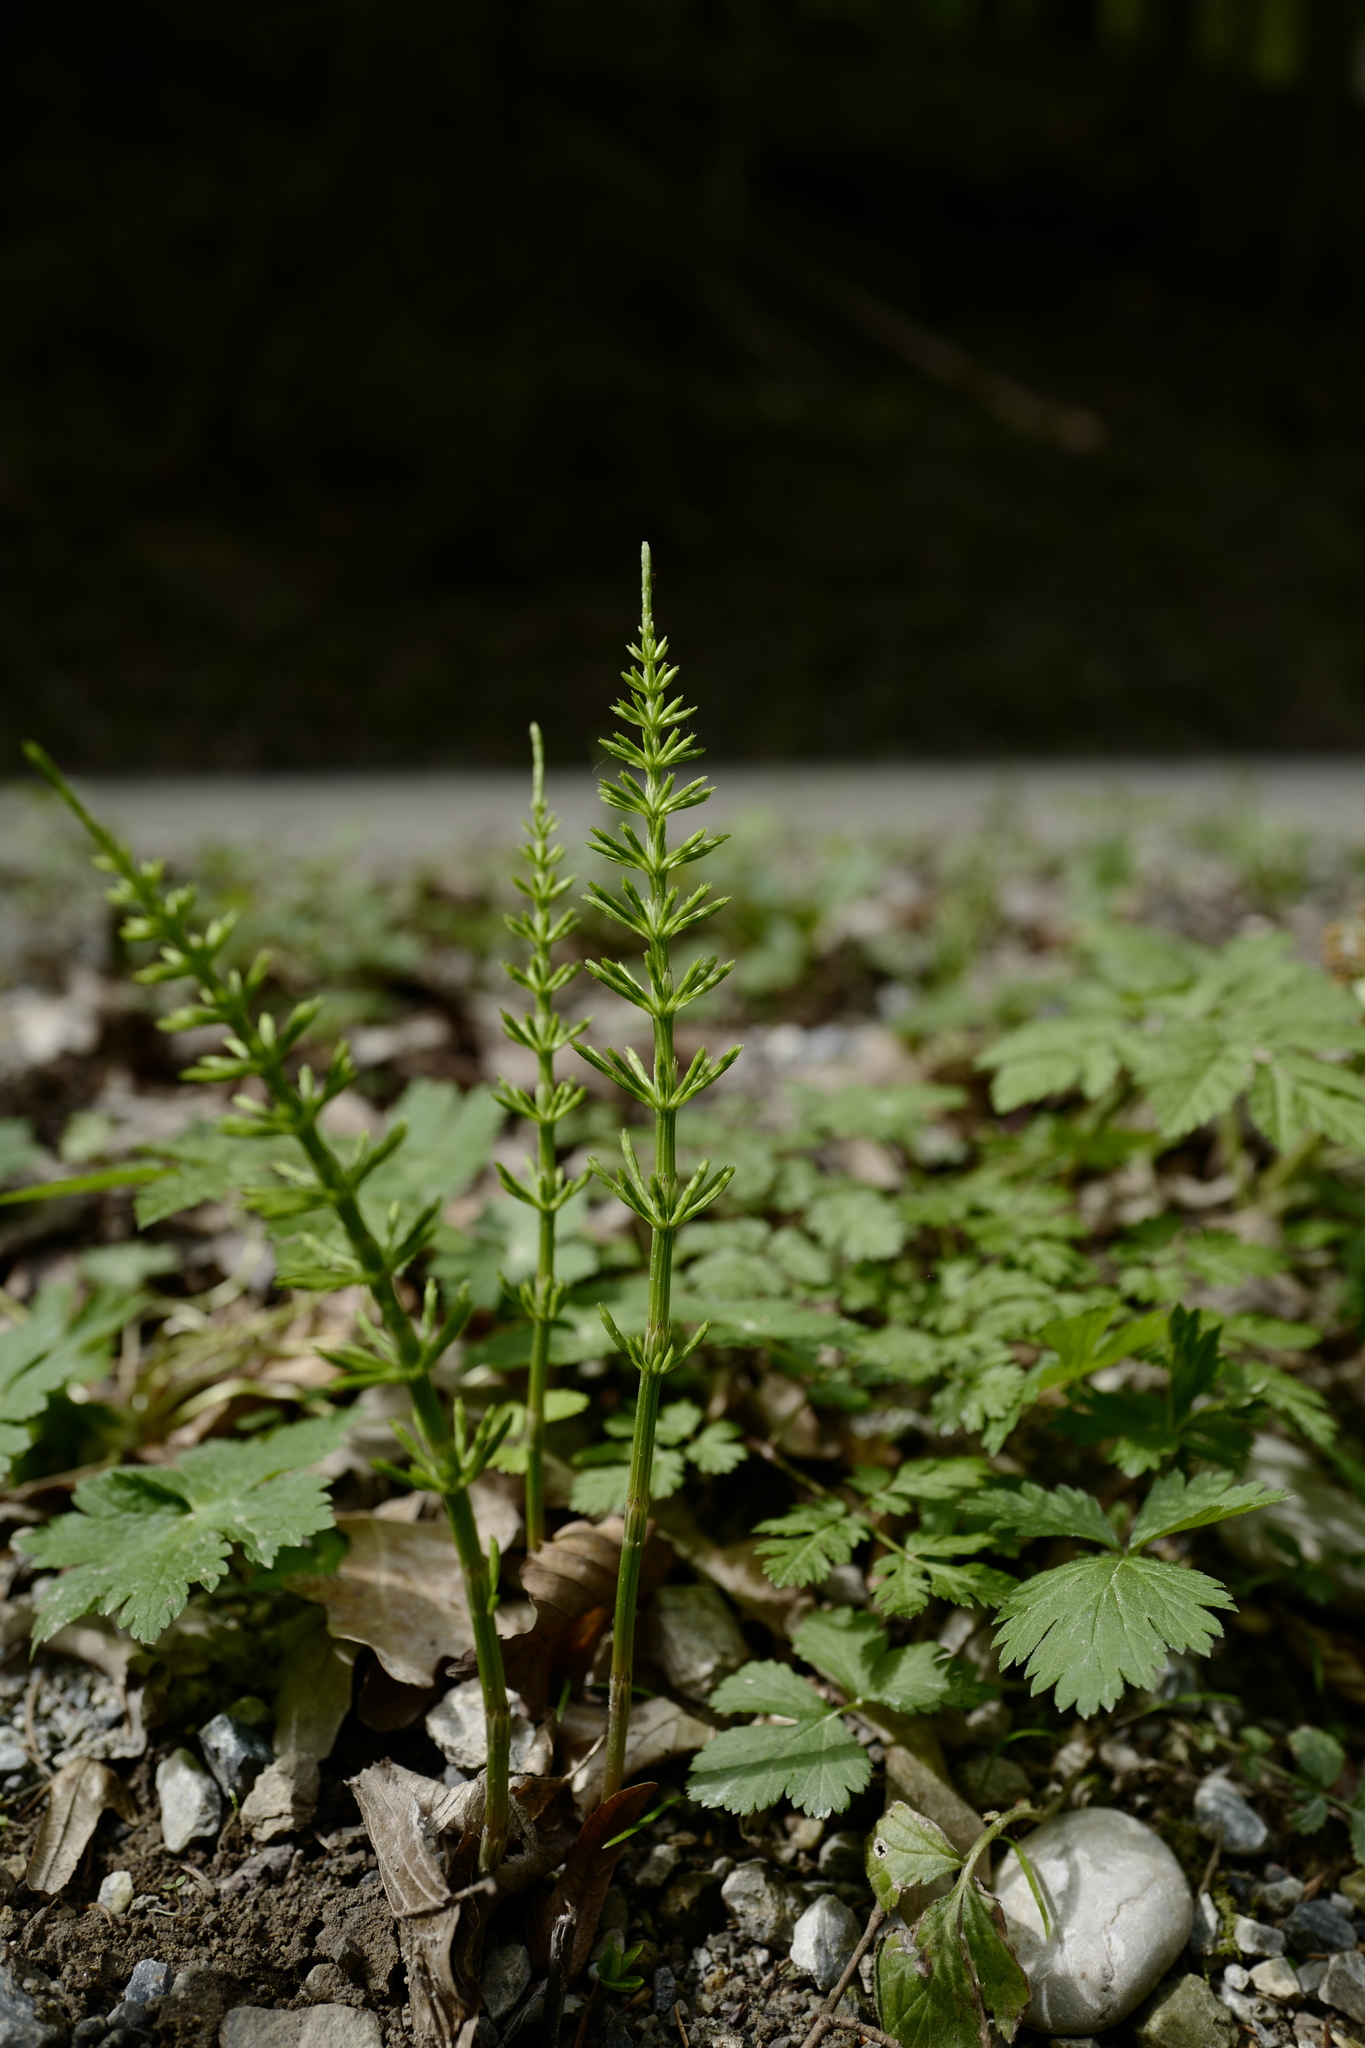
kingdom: Plantae
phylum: Tracheophyta
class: Polypodiopsida
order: Equisetales
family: Equisetaceae
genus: Equisetum
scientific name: Equisetum arvense
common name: Field horsetail
